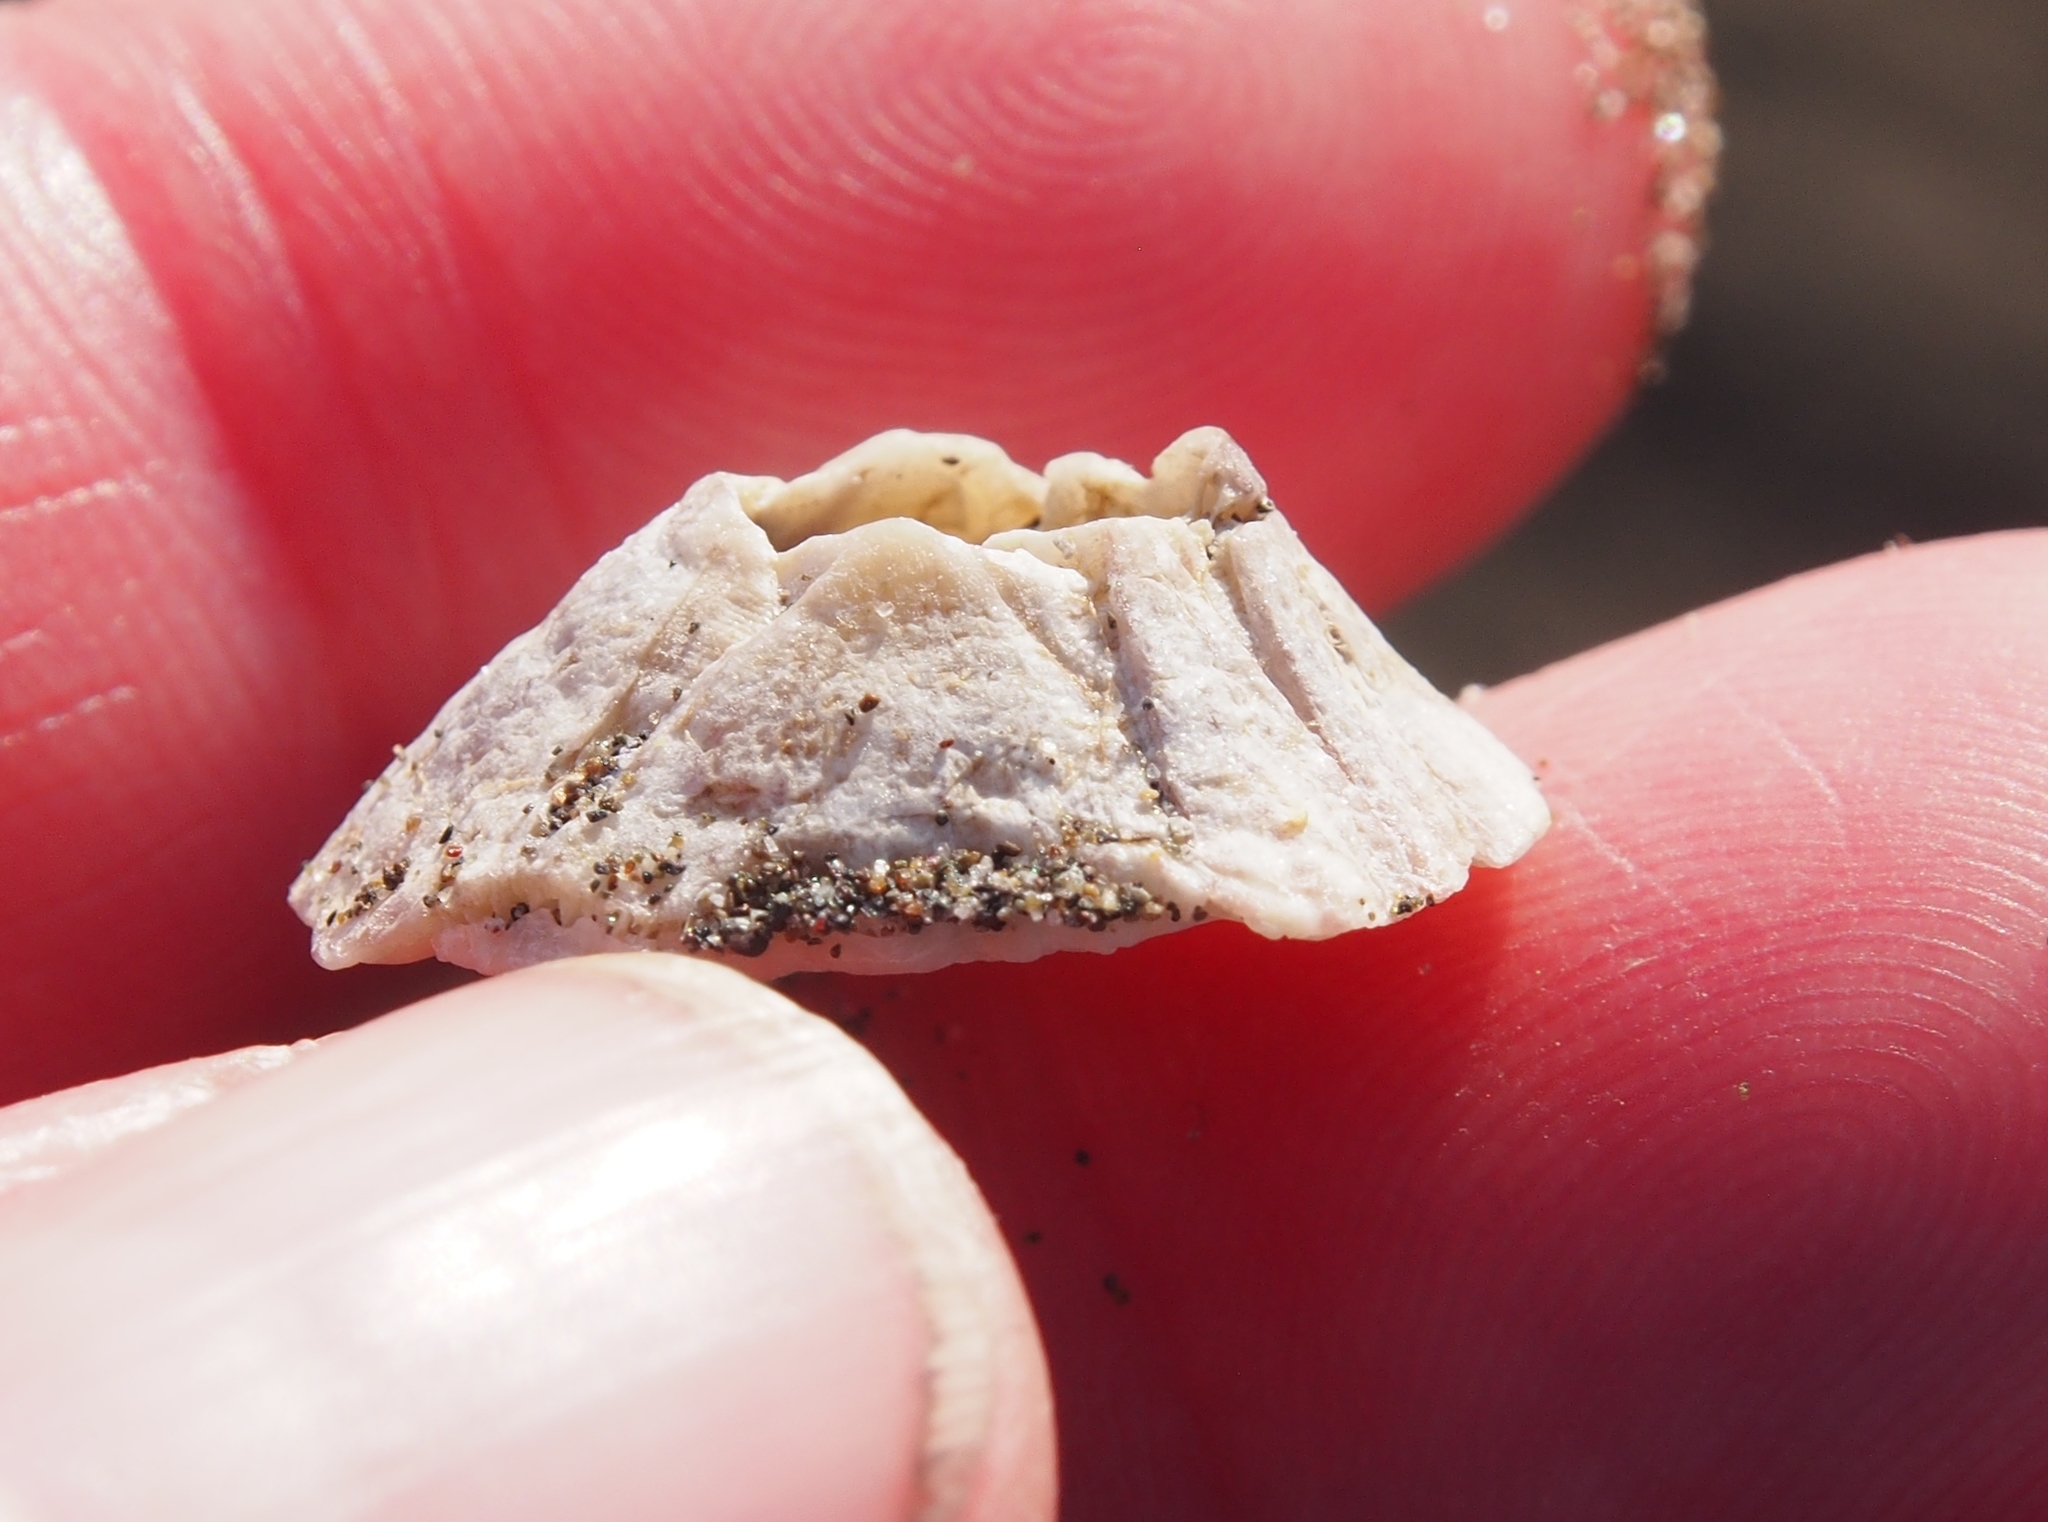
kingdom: Animalia
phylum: Arthropoda
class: Maxillopoda
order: Sessilia
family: Balanidae
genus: Amphibalanus
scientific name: Amphibalanus amphitrite
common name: Striped acorn barnacle
